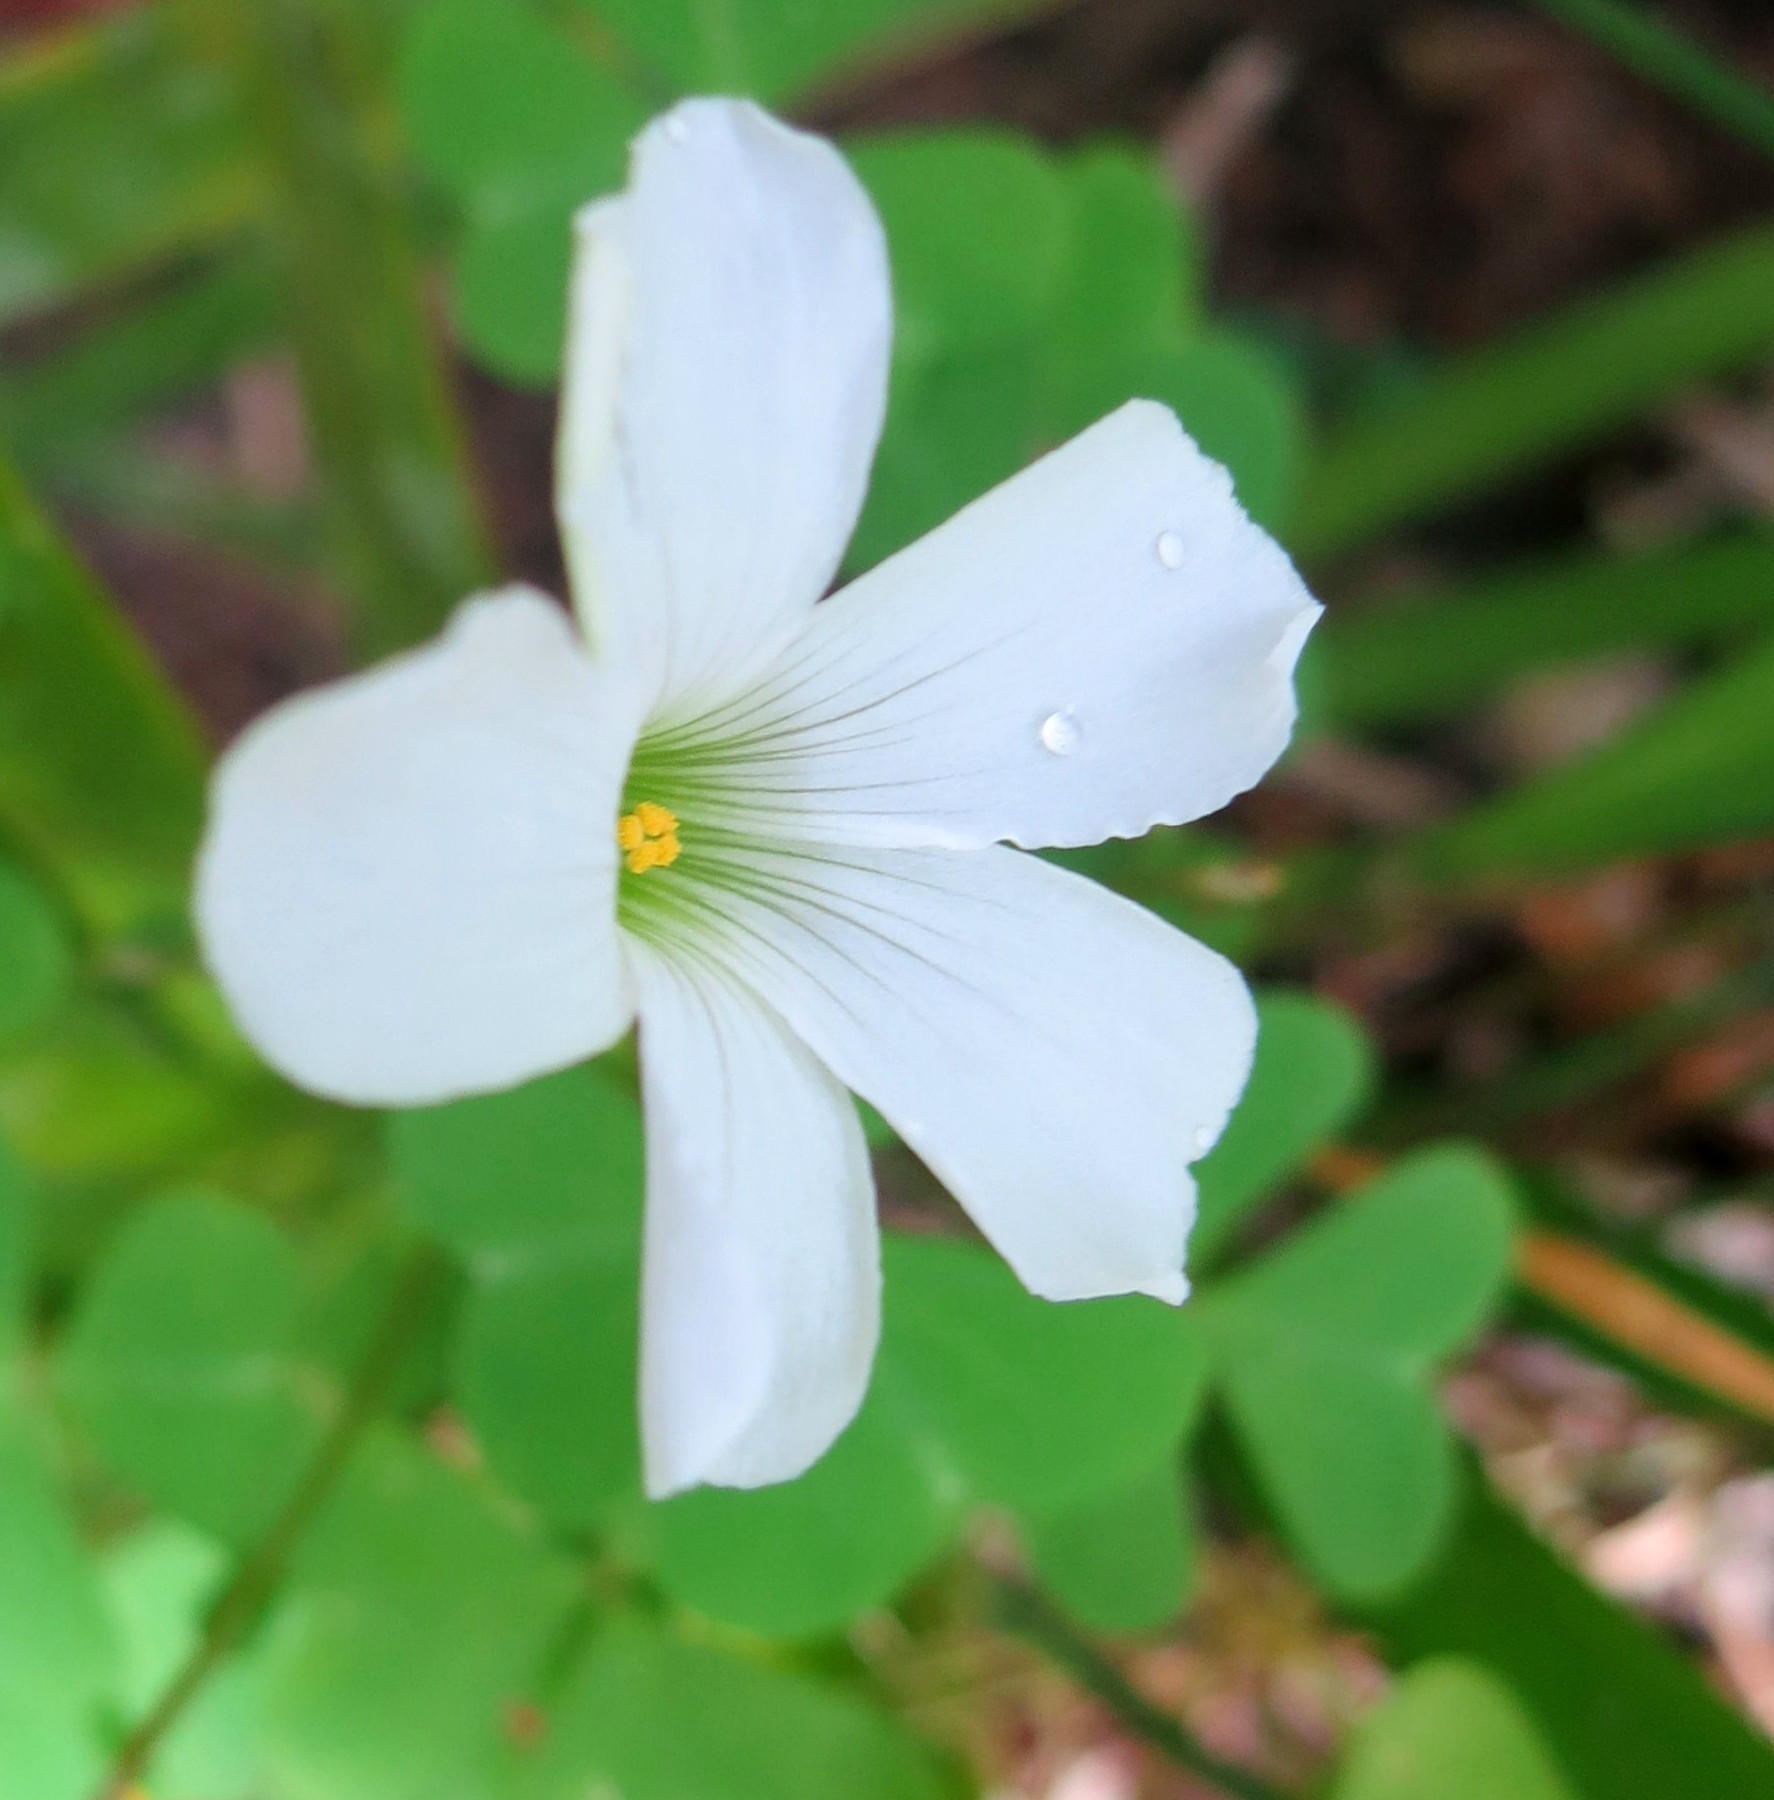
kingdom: Plantae
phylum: Tracheophyta
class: Magnoliopsida
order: Oxalidales
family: Oxalidaceae
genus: Oxalis
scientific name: Oxalis incarnata
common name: Pale pink-sorrel
